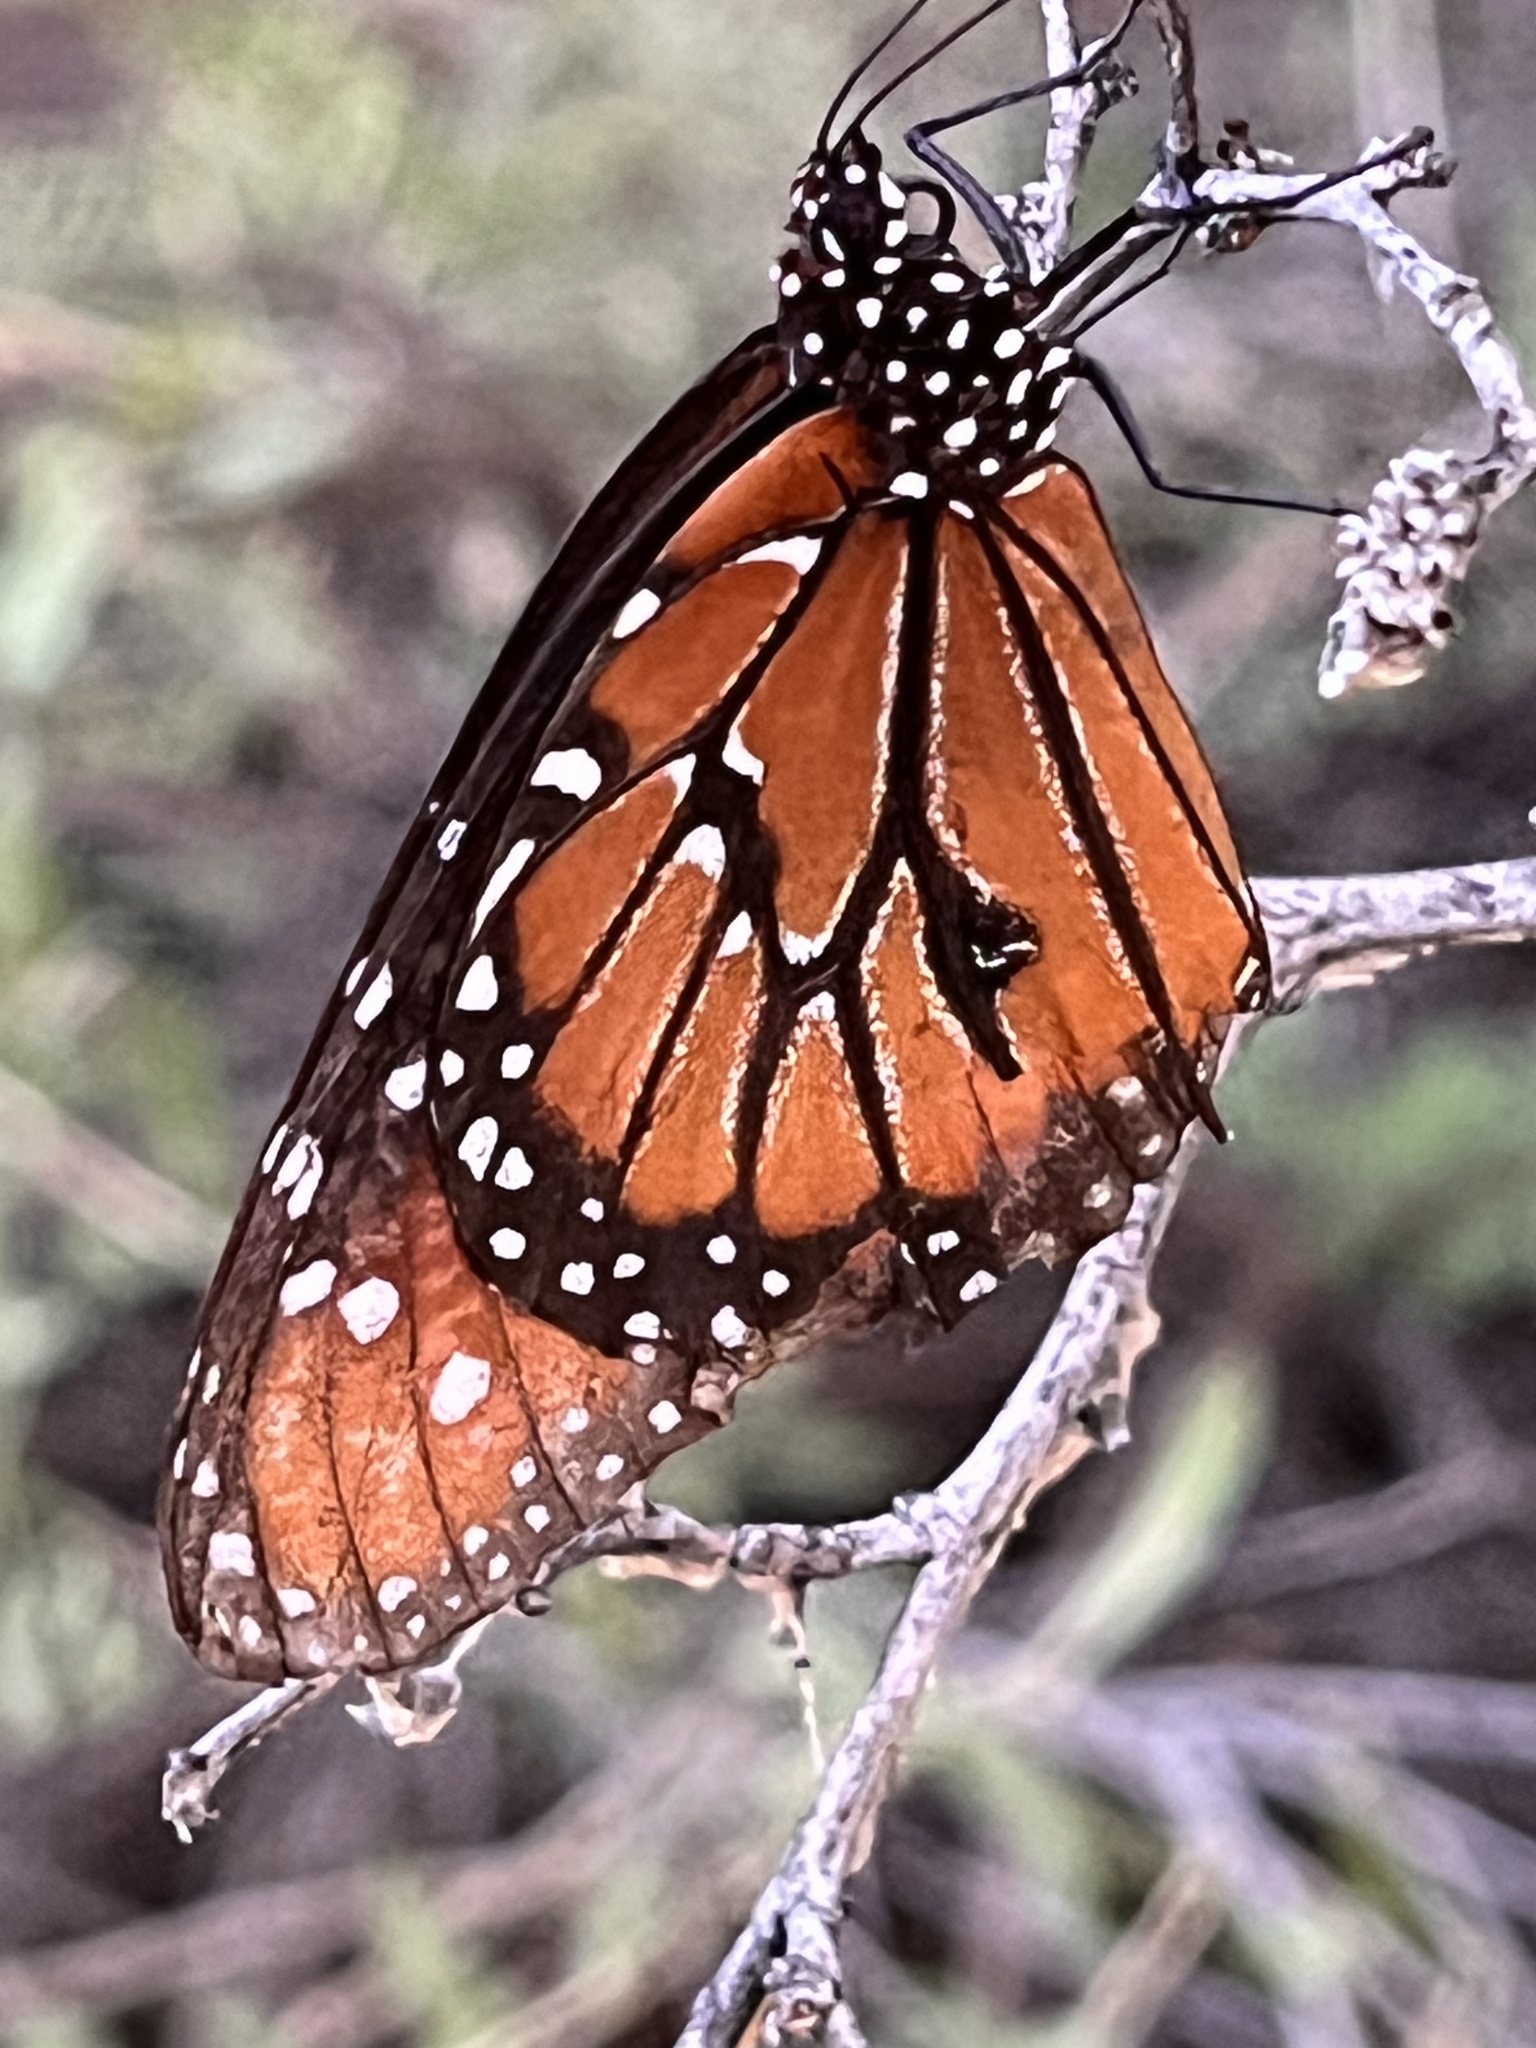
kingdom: Animalia
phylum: Arthropoda
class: Insecta
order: Lepidoptera
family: Nymphalidae
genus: Danaus
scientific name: Danaus gilippus
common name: Queen
